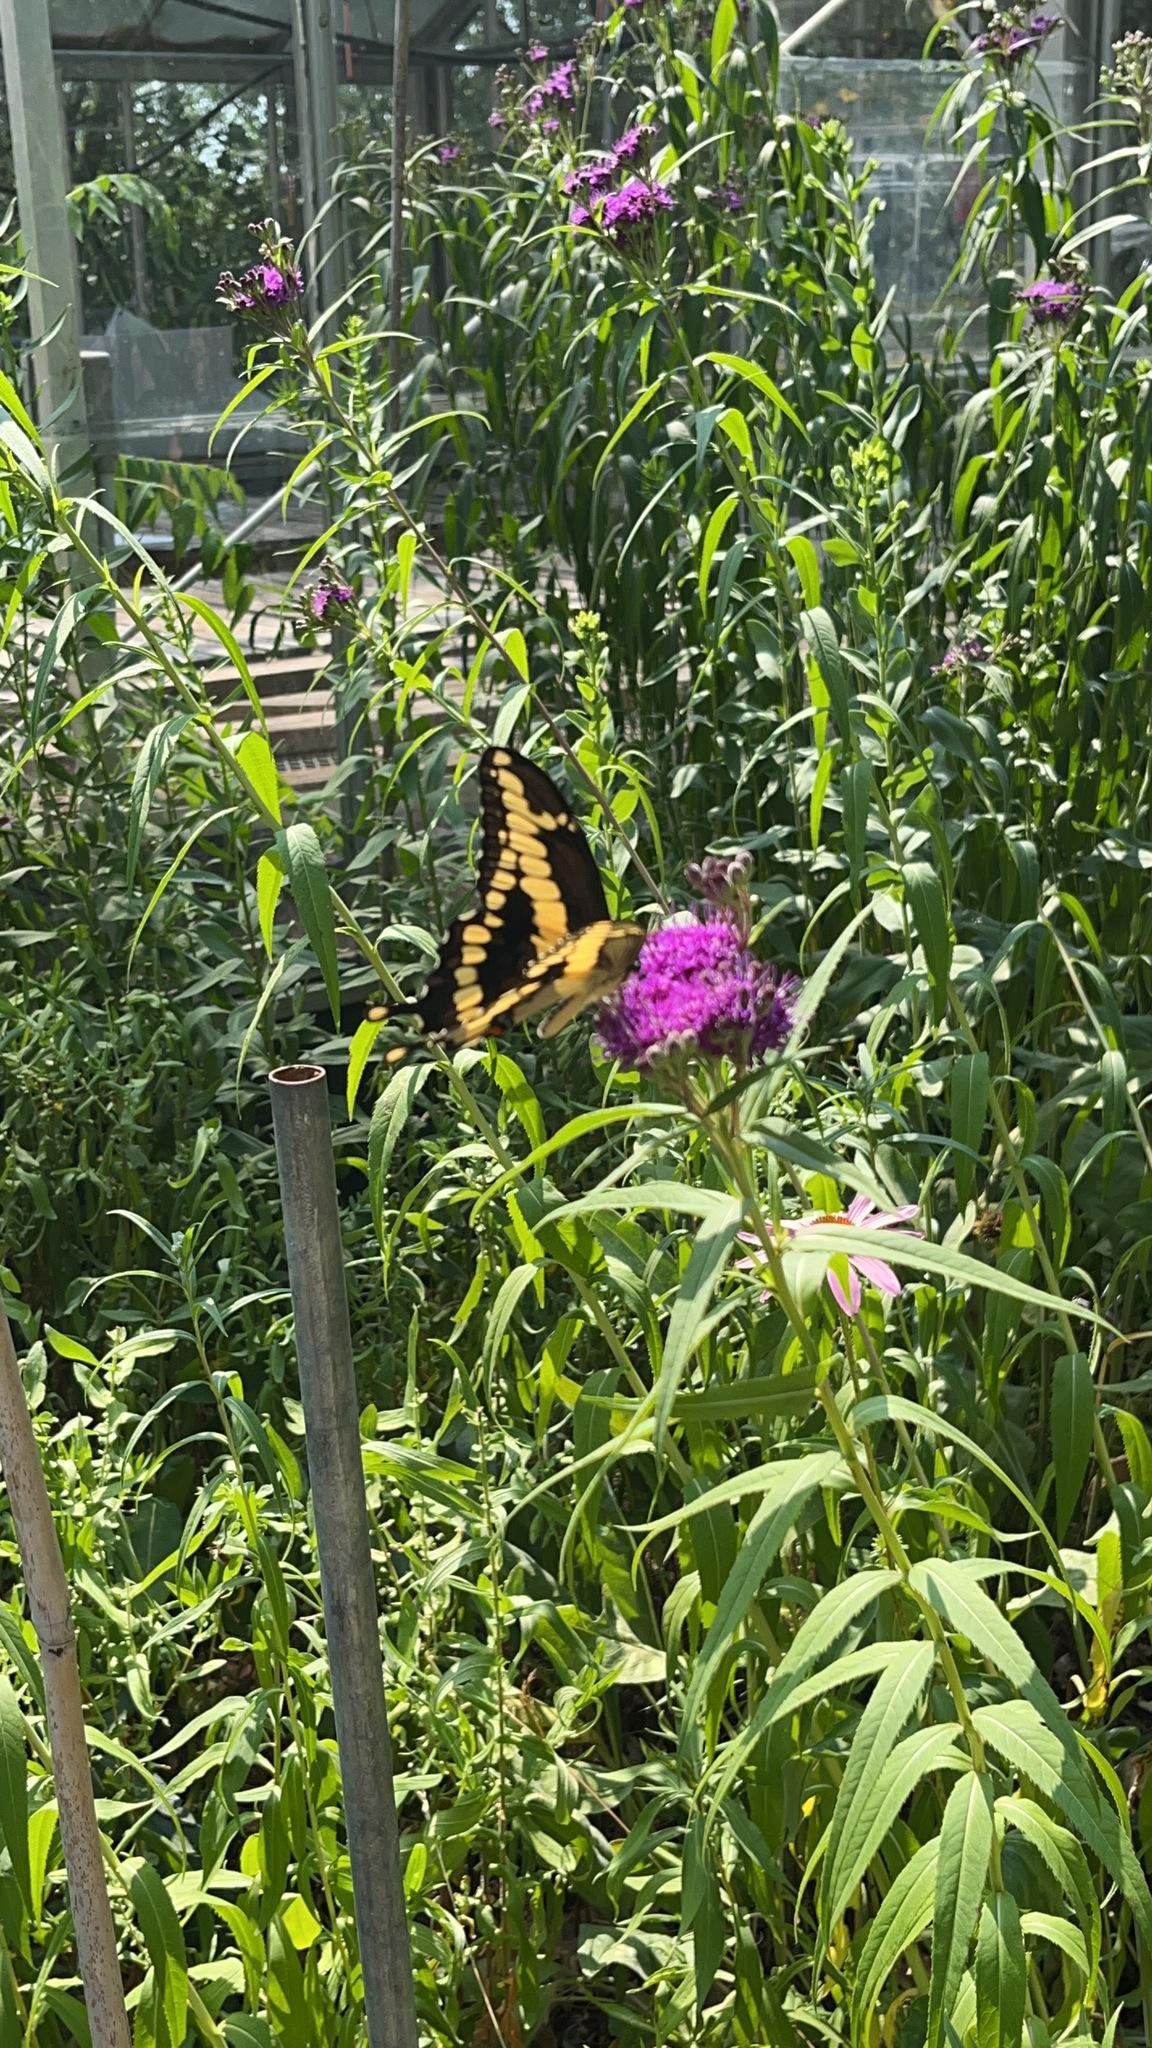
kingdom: Animalia
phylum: Arthropoda
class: Insecta
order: Lepidoptera
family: Papilionidae
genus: Papilio
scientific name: Papilio cresphontes
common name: Giant swallowtail
